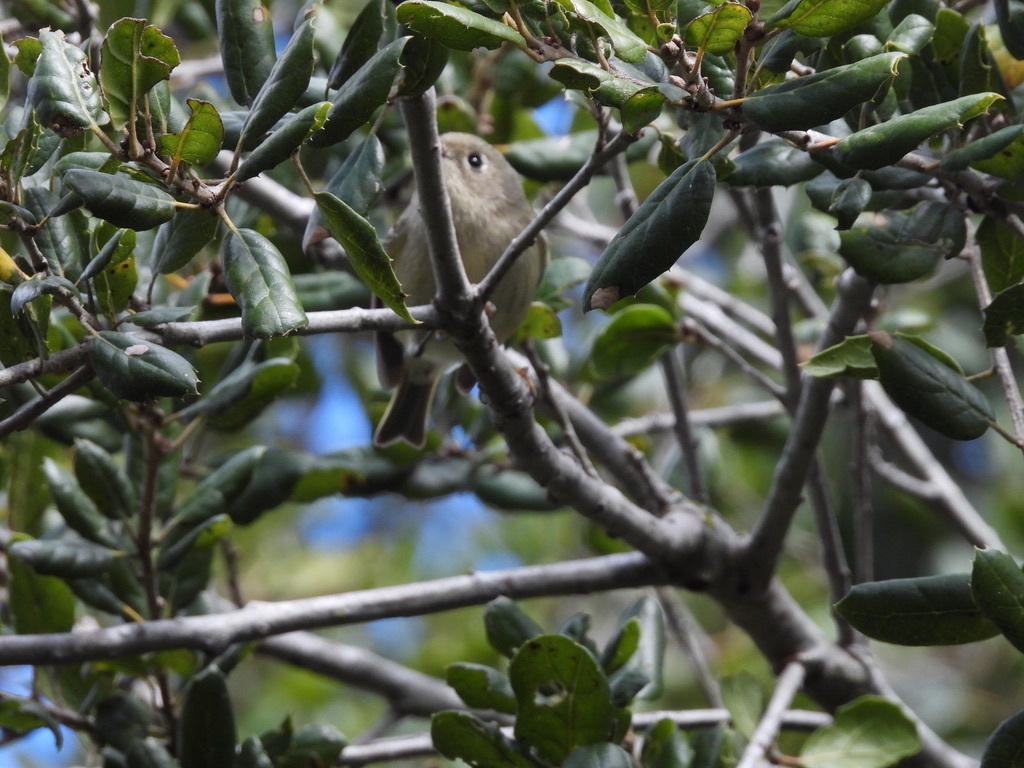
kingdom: Animalia
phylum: Chordata
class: Aves
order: Passeriformes
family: Regulidae
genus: Regulus
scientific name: Regulus calendula
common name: Ruby-crowned kinglet
